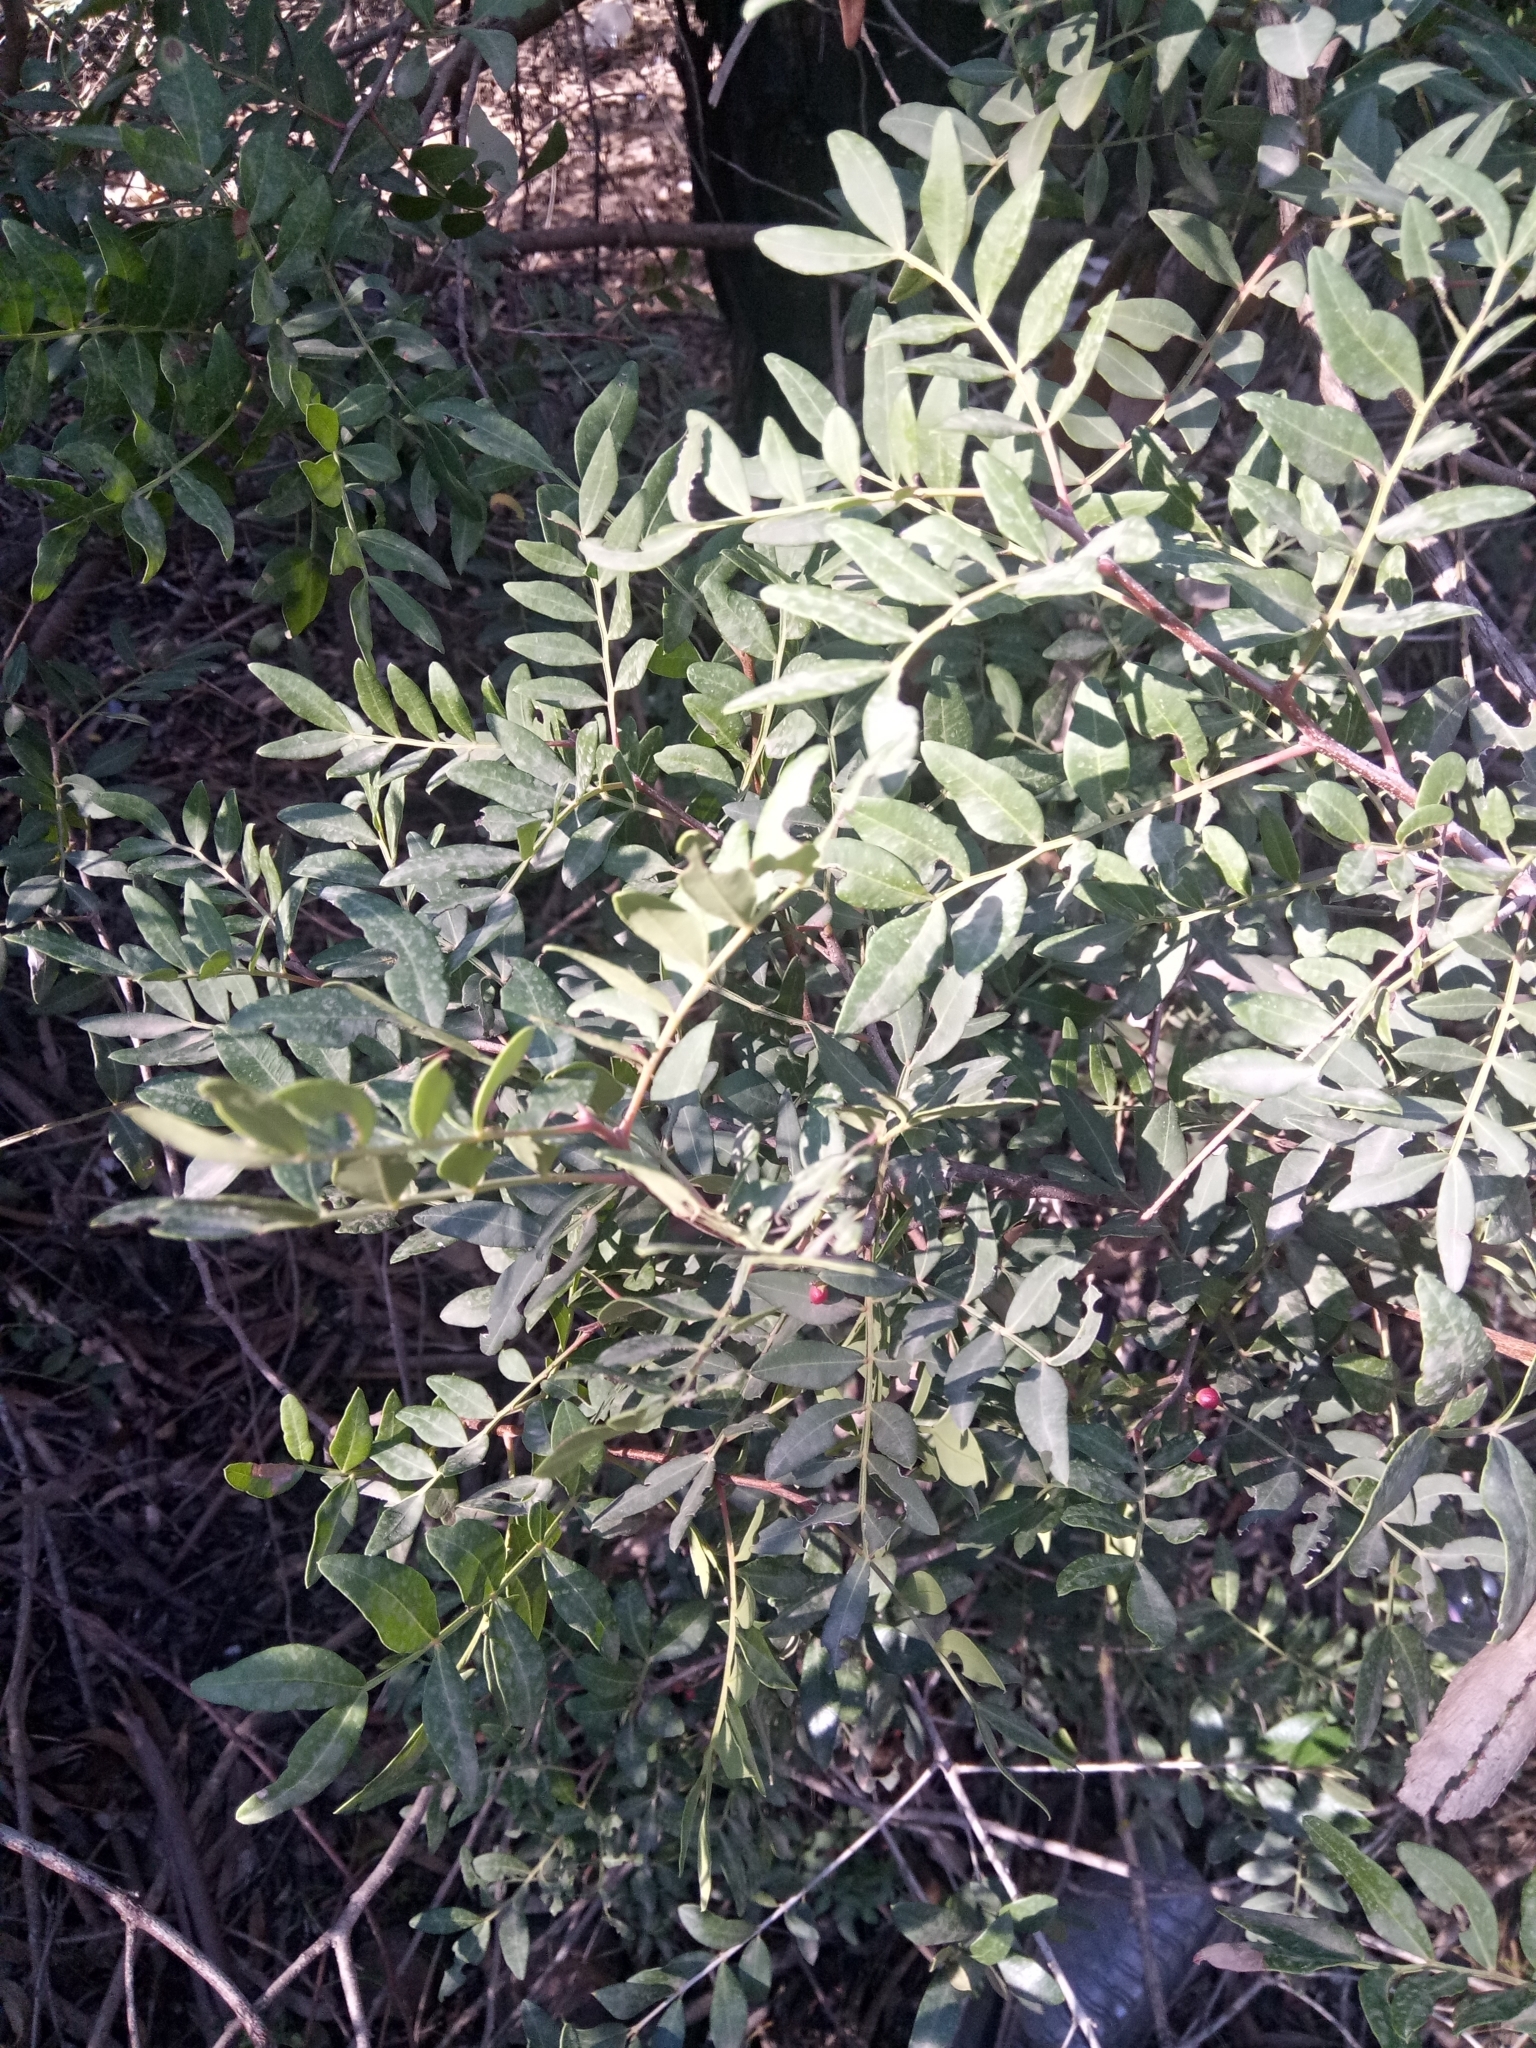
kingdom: Plantae
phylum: Tracheophyta
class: Magnoliopsida
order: Sapindales
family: Anacardiaceae
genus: Pistacia
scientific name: Pistacia lentiscus
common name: Lentisk
